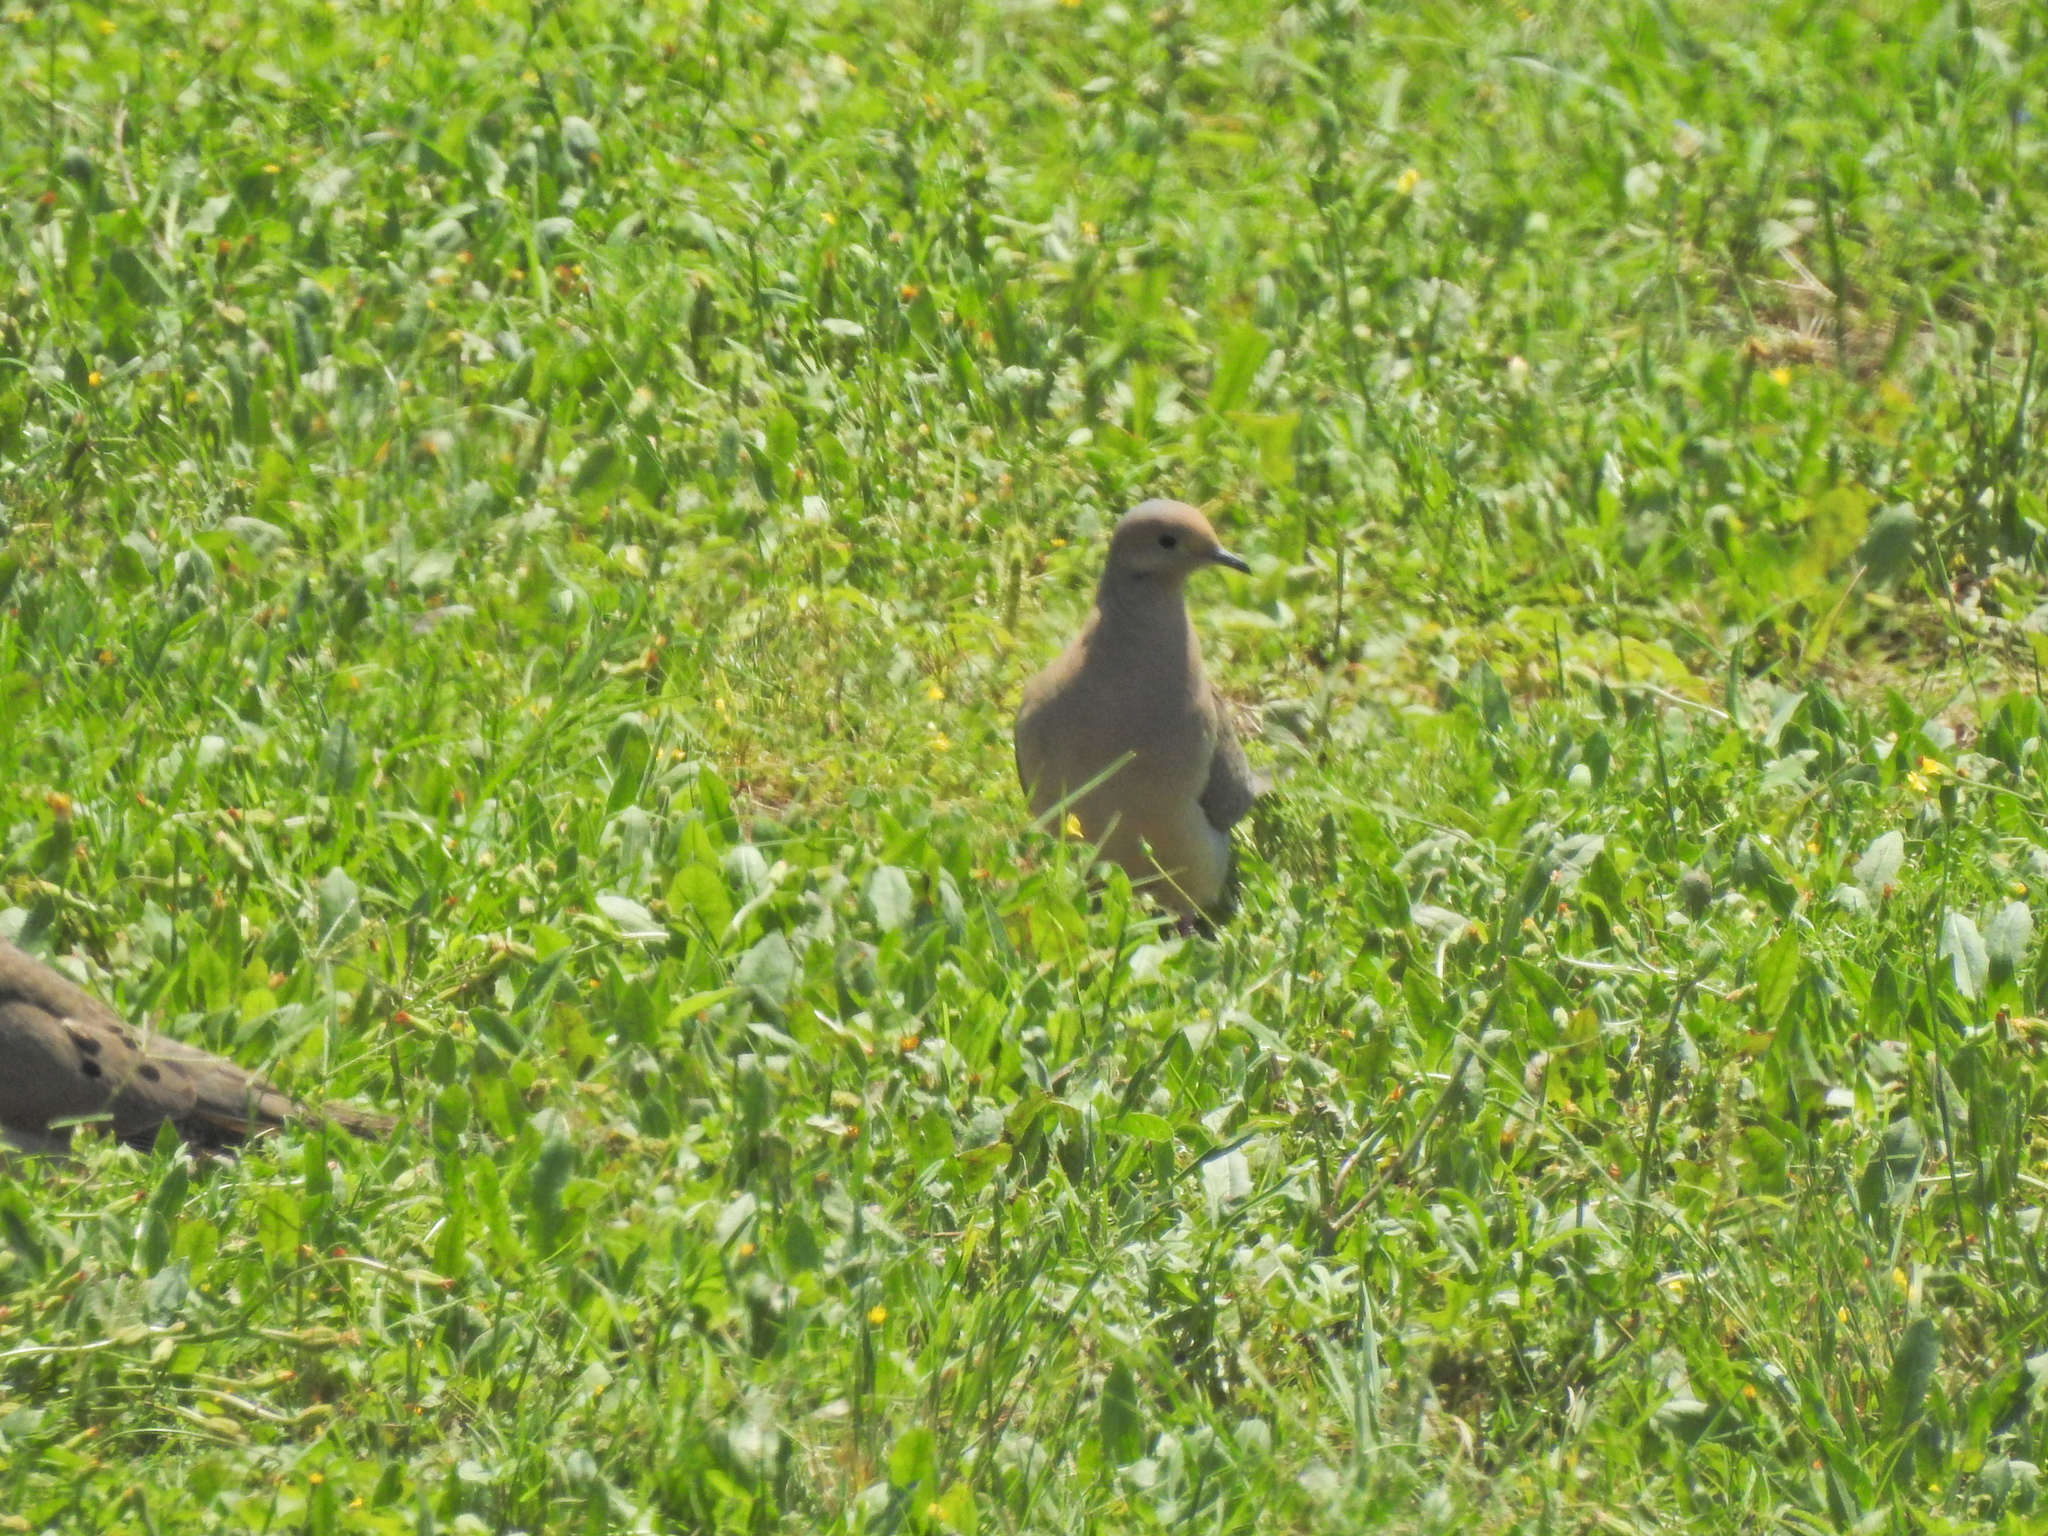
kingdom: Animalia
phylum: Chordata
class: Aves
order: Columbiformes
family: Columbidae
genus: Zenaida
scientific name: Zenaida macroura
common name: Mourning dove
